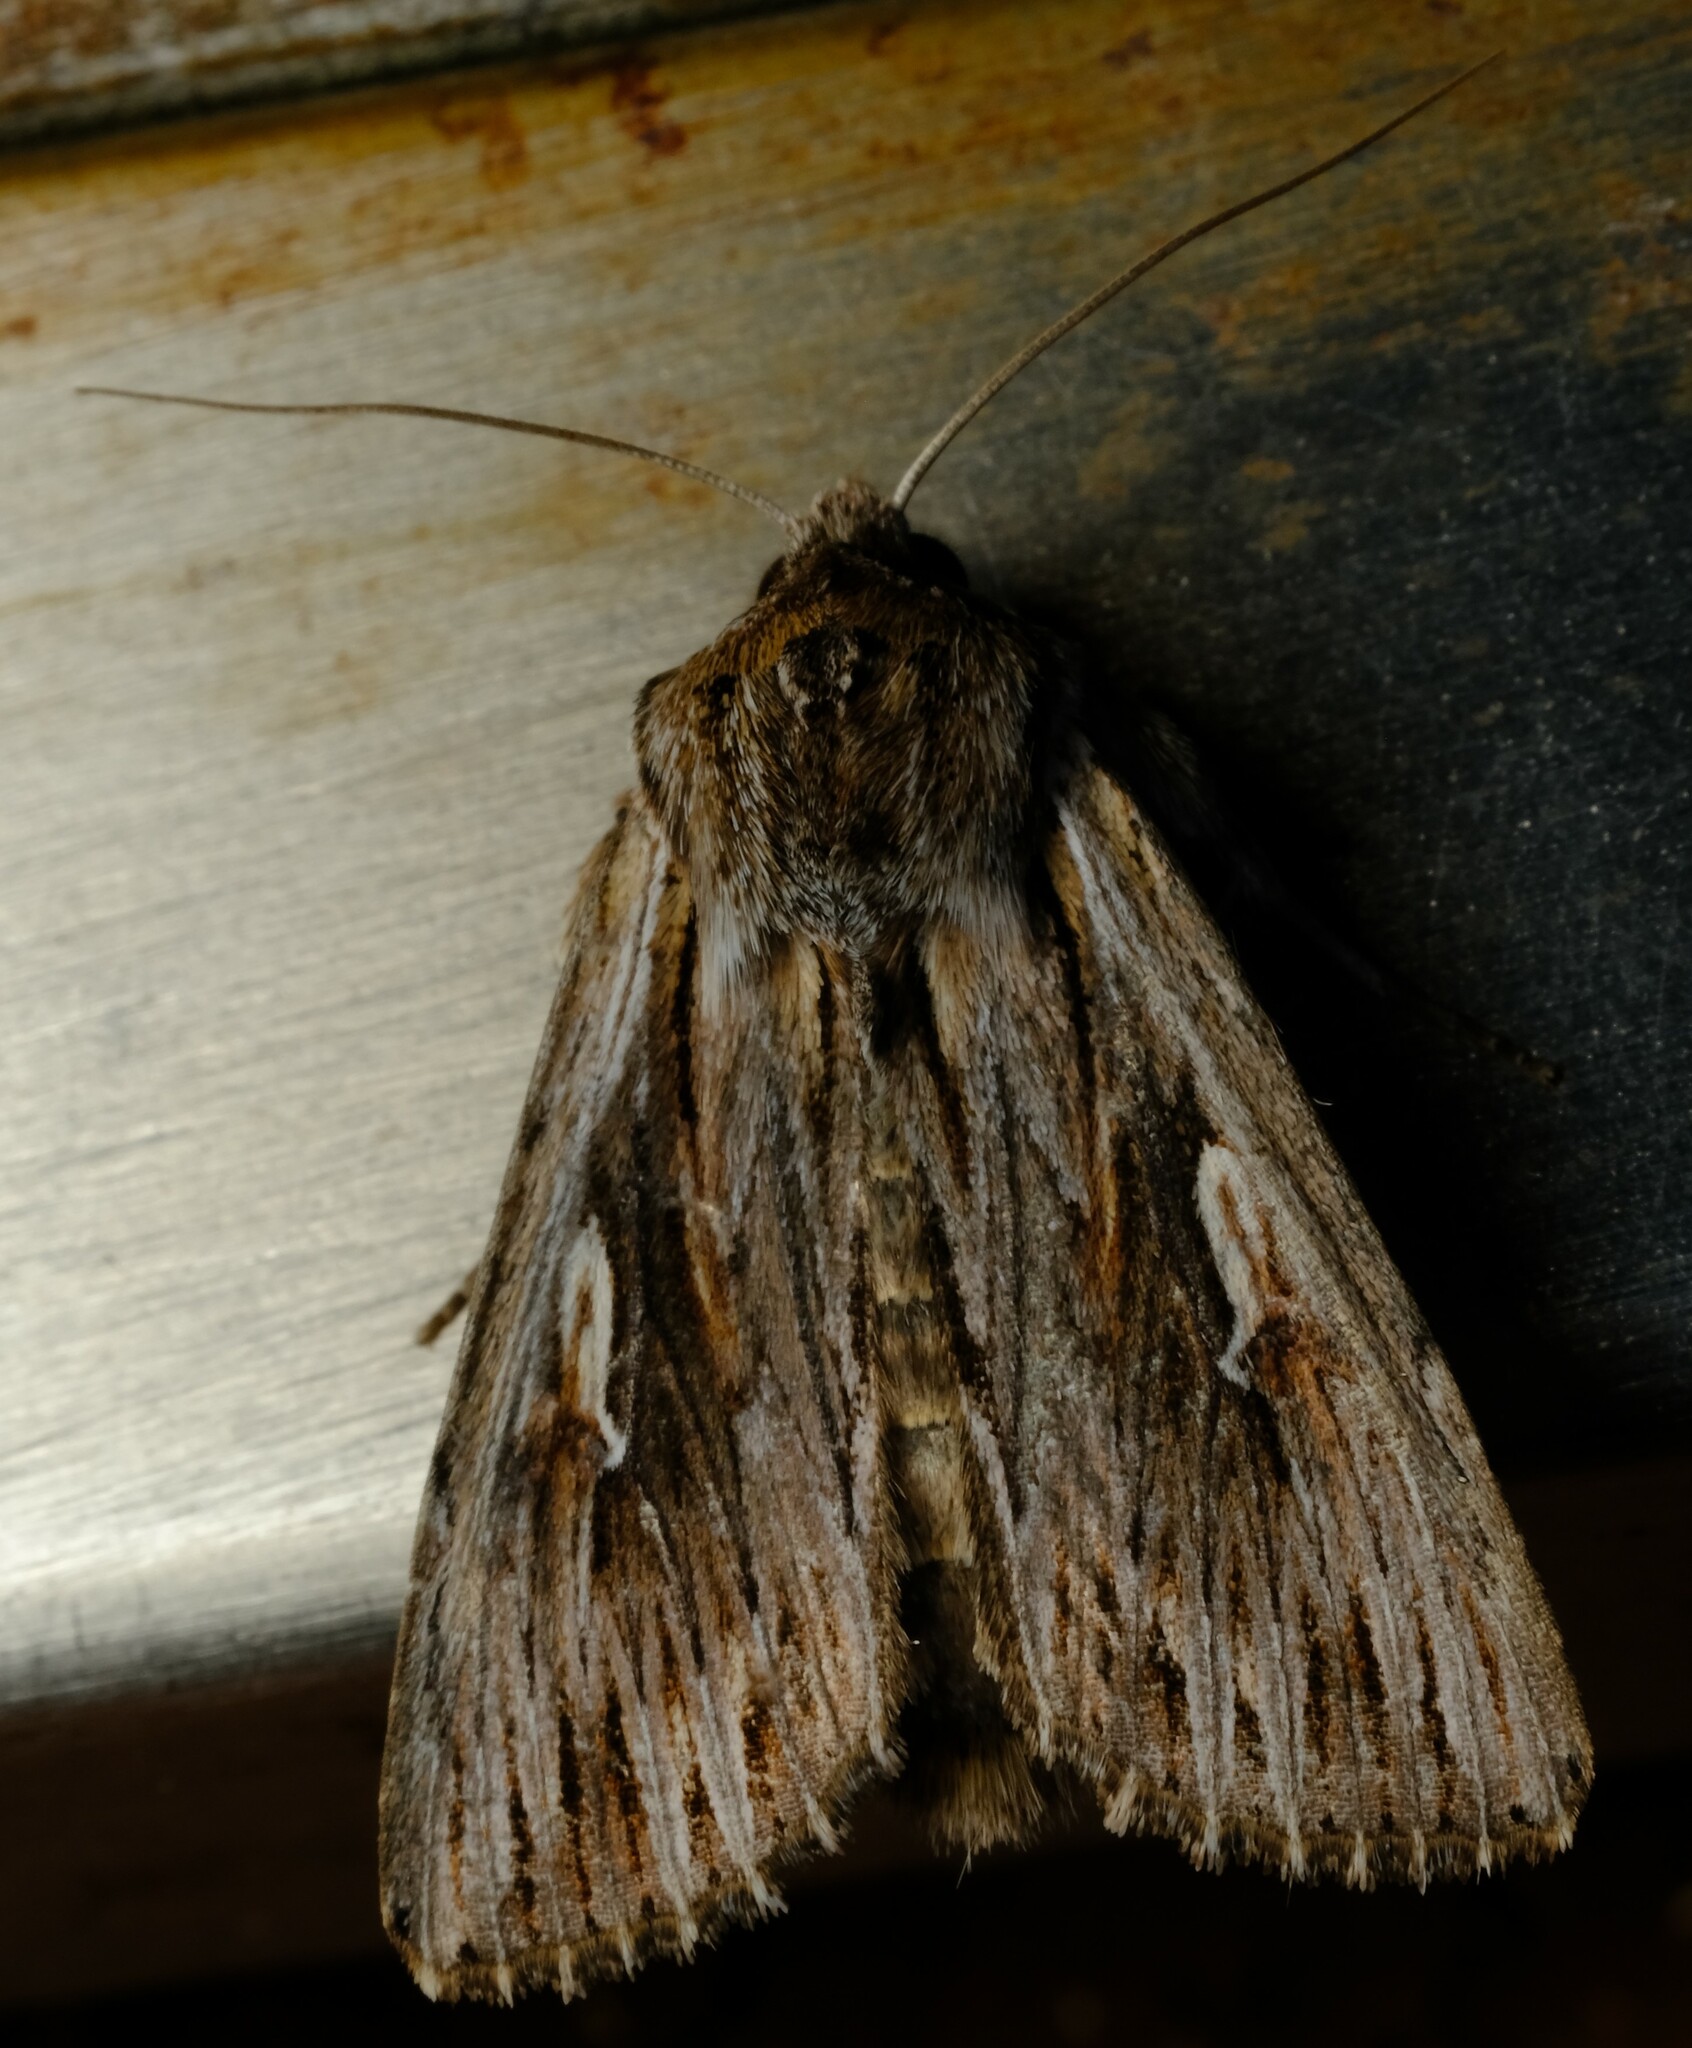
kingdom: Animalia
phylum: Arthropoda
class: Insecta
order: Lepidoptera
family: Noctuidae
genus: Persectania
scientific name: Persectania ewingii
